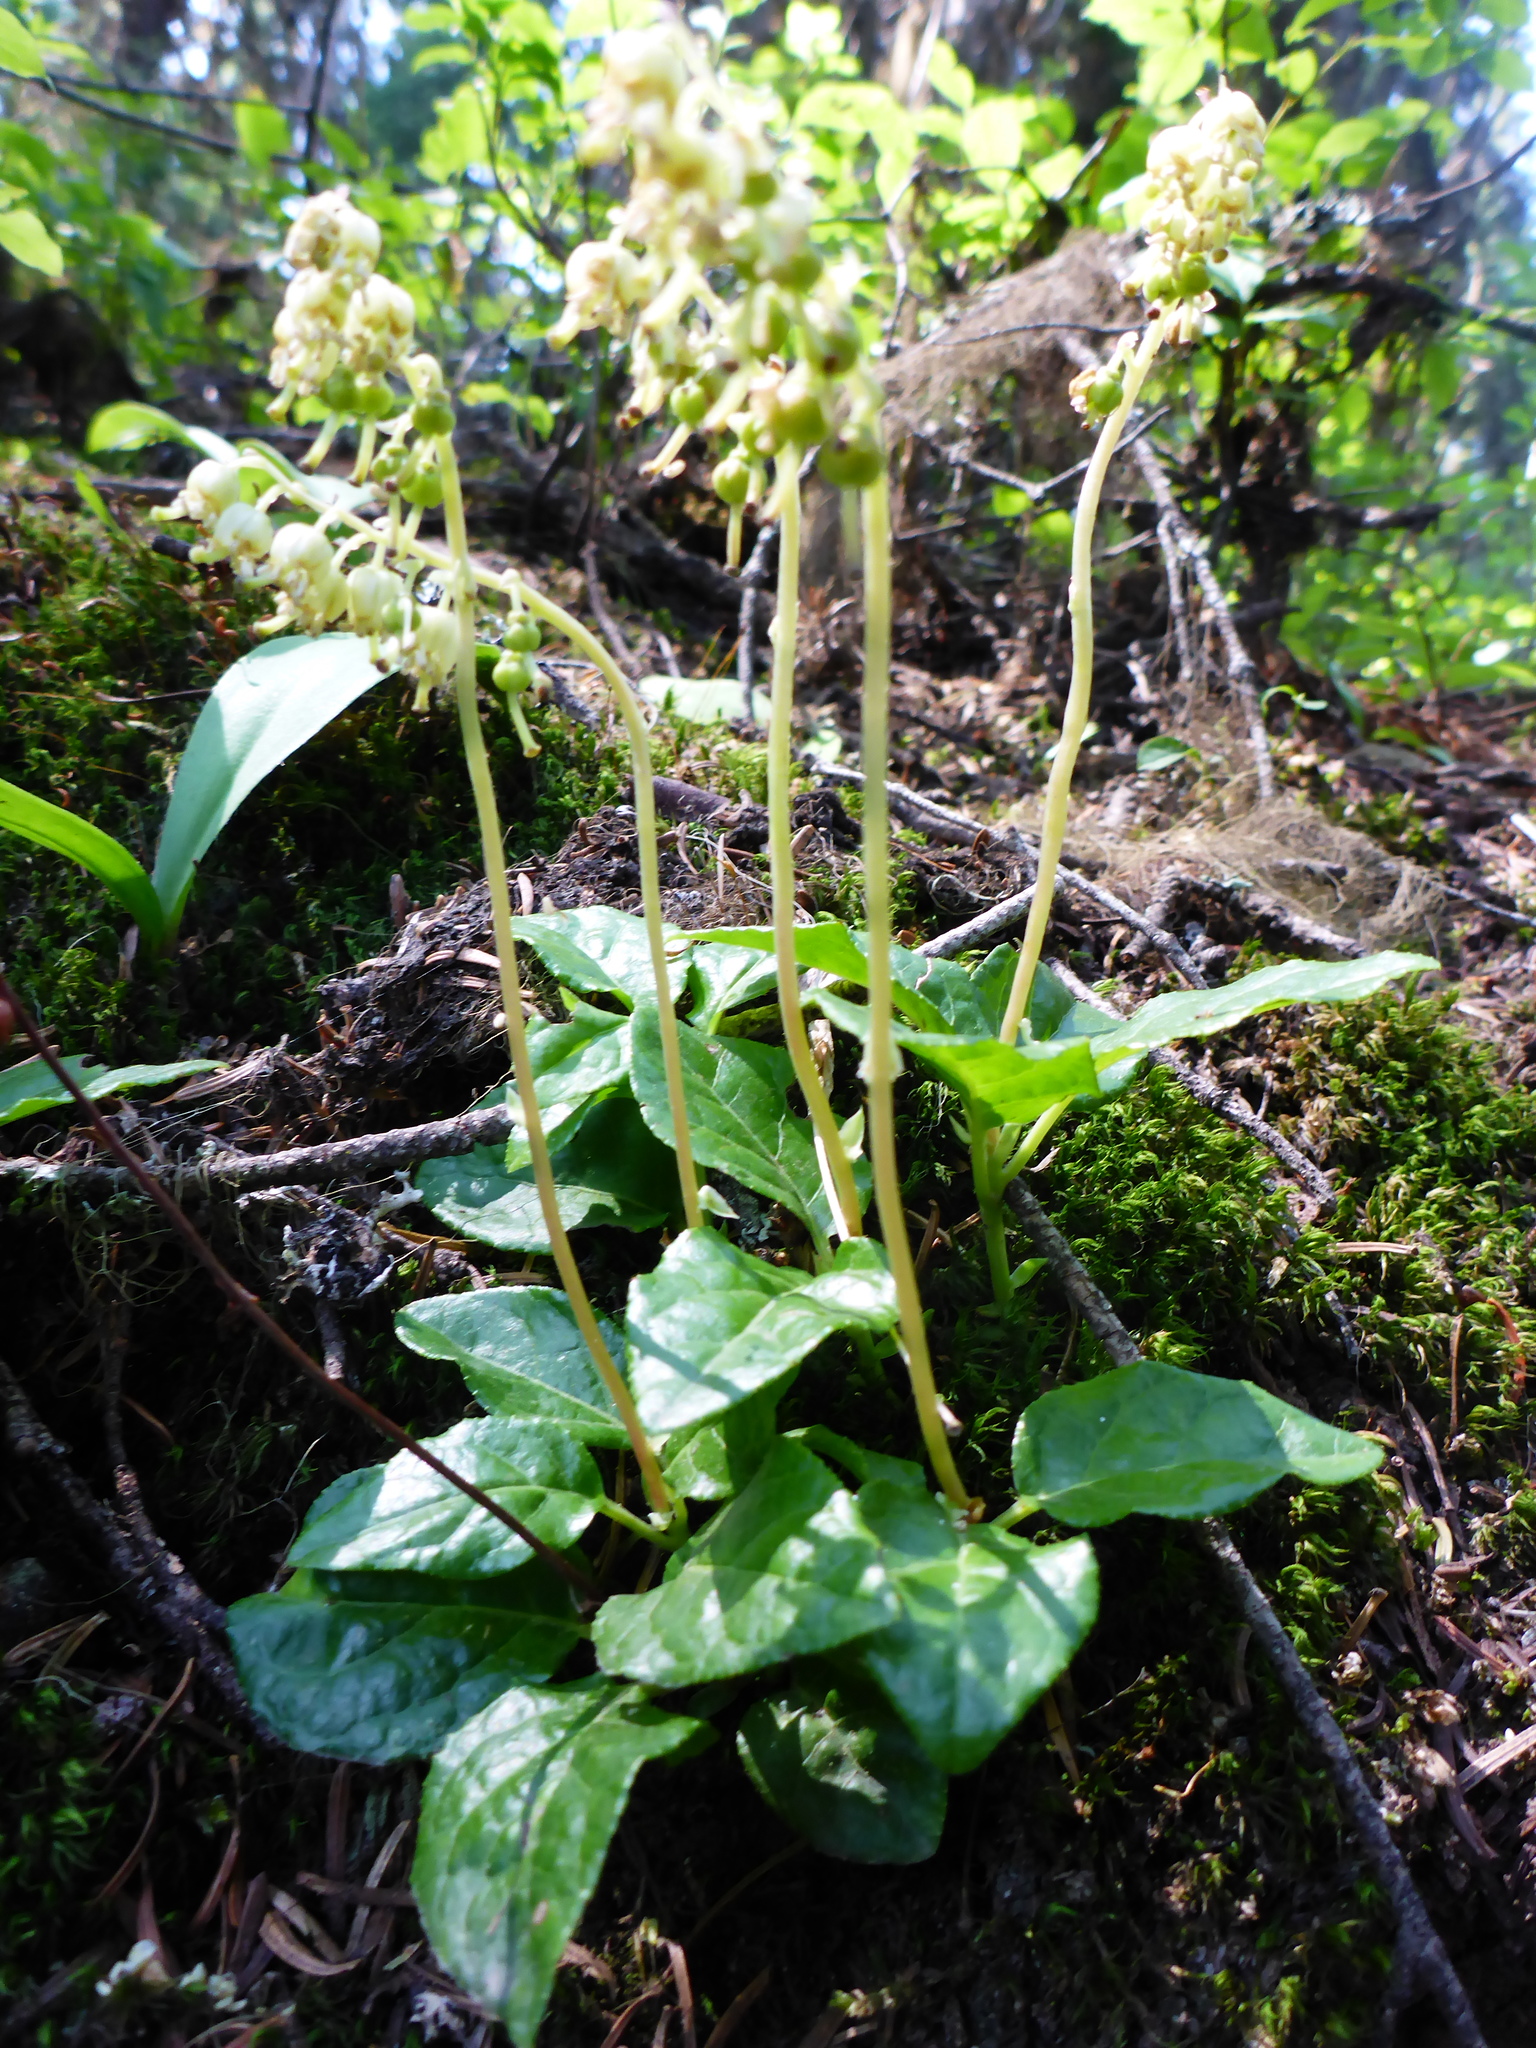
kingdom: Plantae
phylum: Tracheophyta
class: Magnoliopsida
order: Ericales
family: Ericaceae
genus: Orthilia
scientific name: Orthilia secunda
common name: One-sided orthilia
